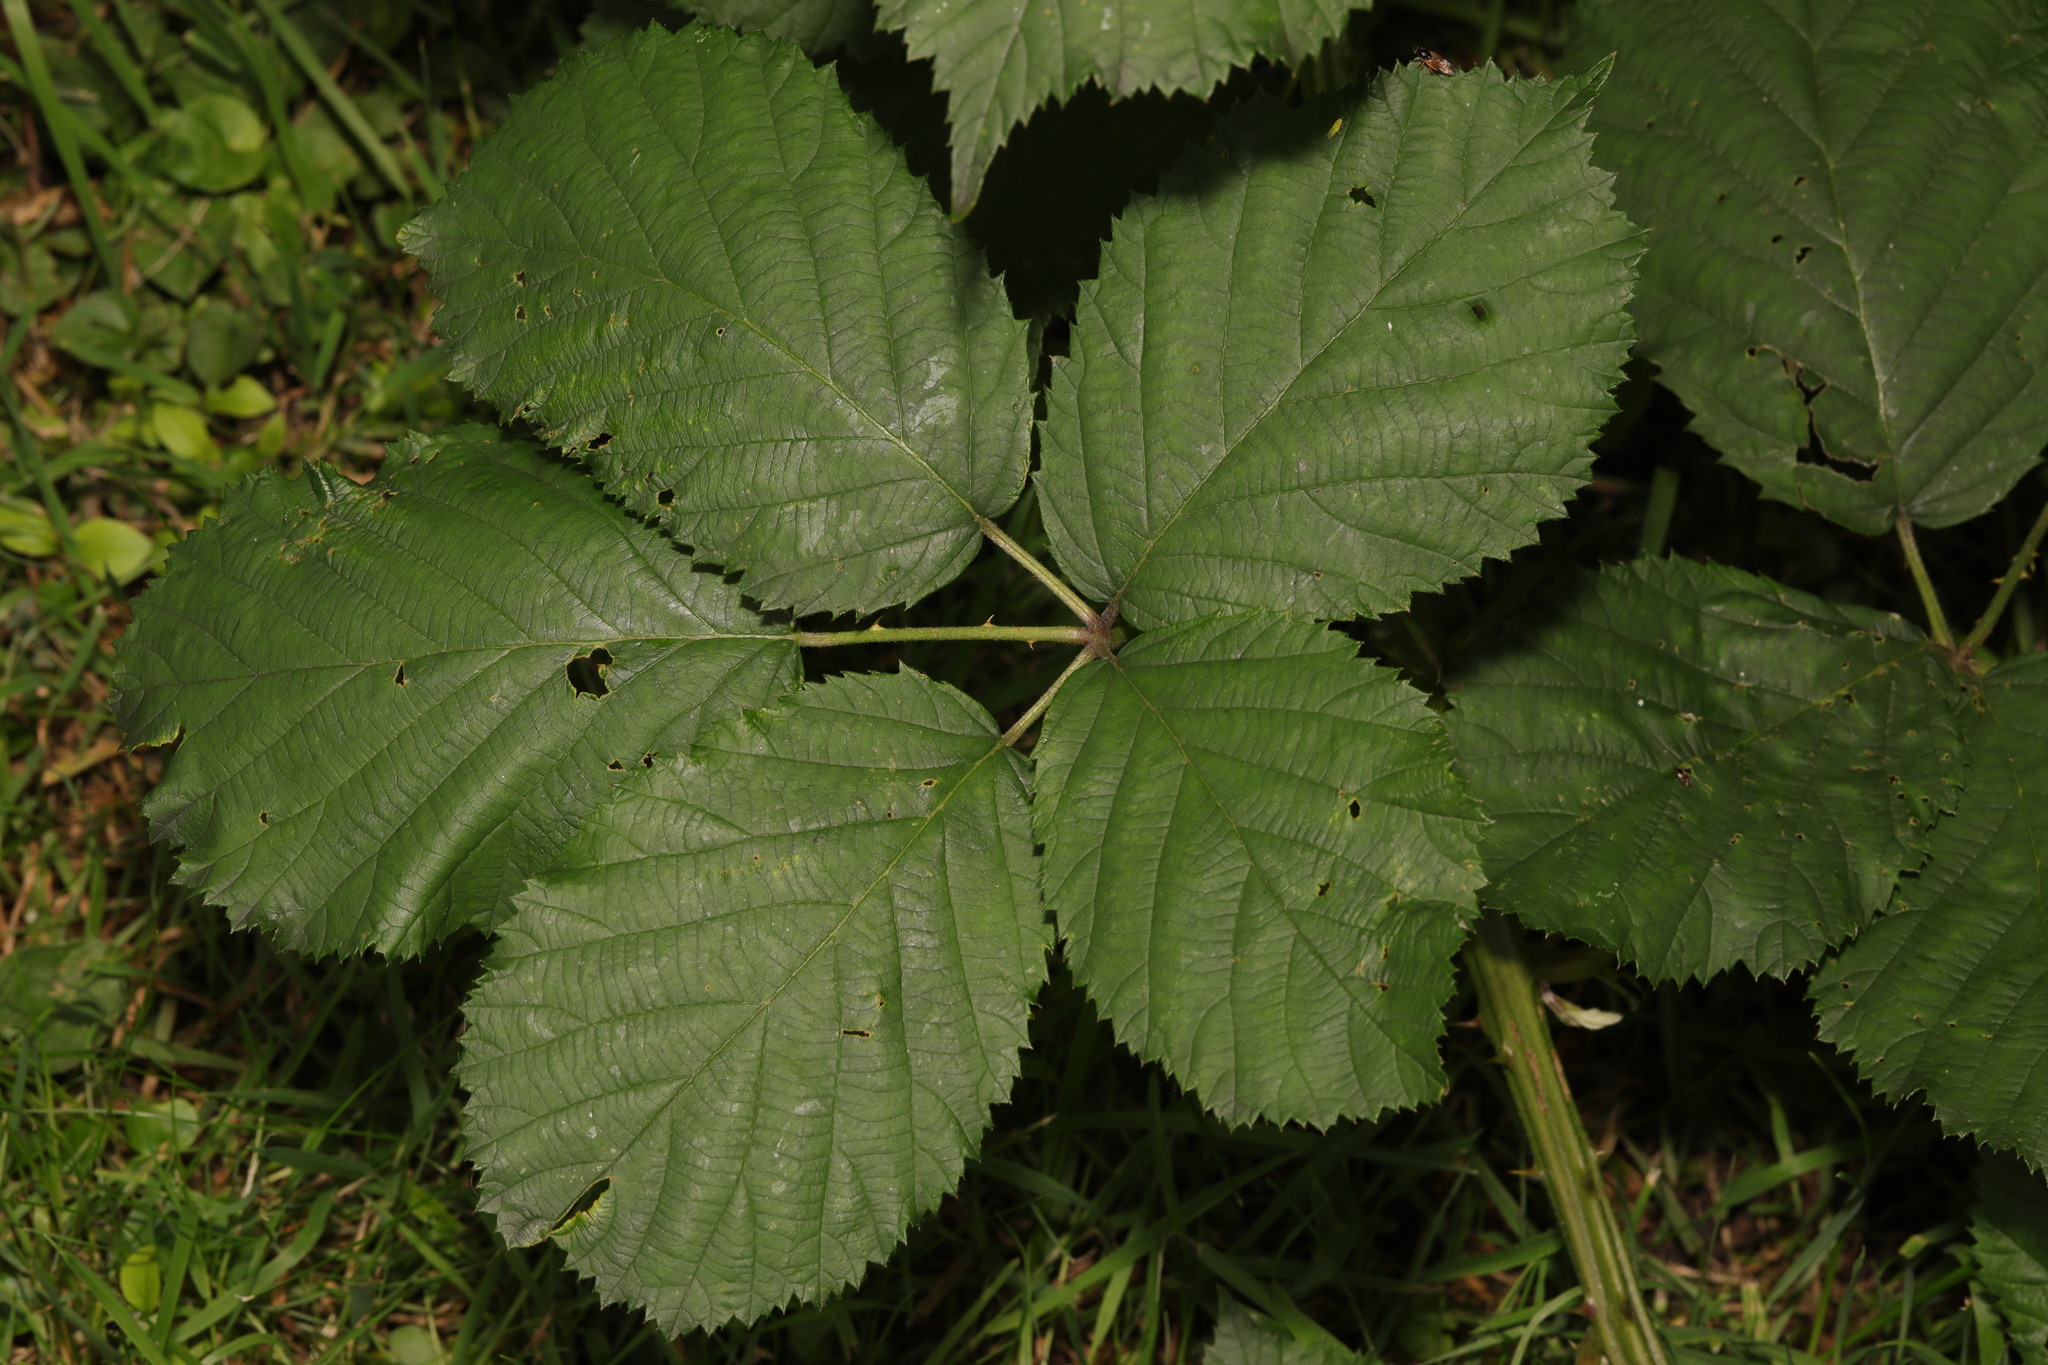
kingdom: Plantae
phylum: Tracheophyta
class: Magnoliopsida
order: Rosales
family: Rosaceae
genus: Rubus
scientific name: Rubus armeniacus
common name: Himalayan blackberry
